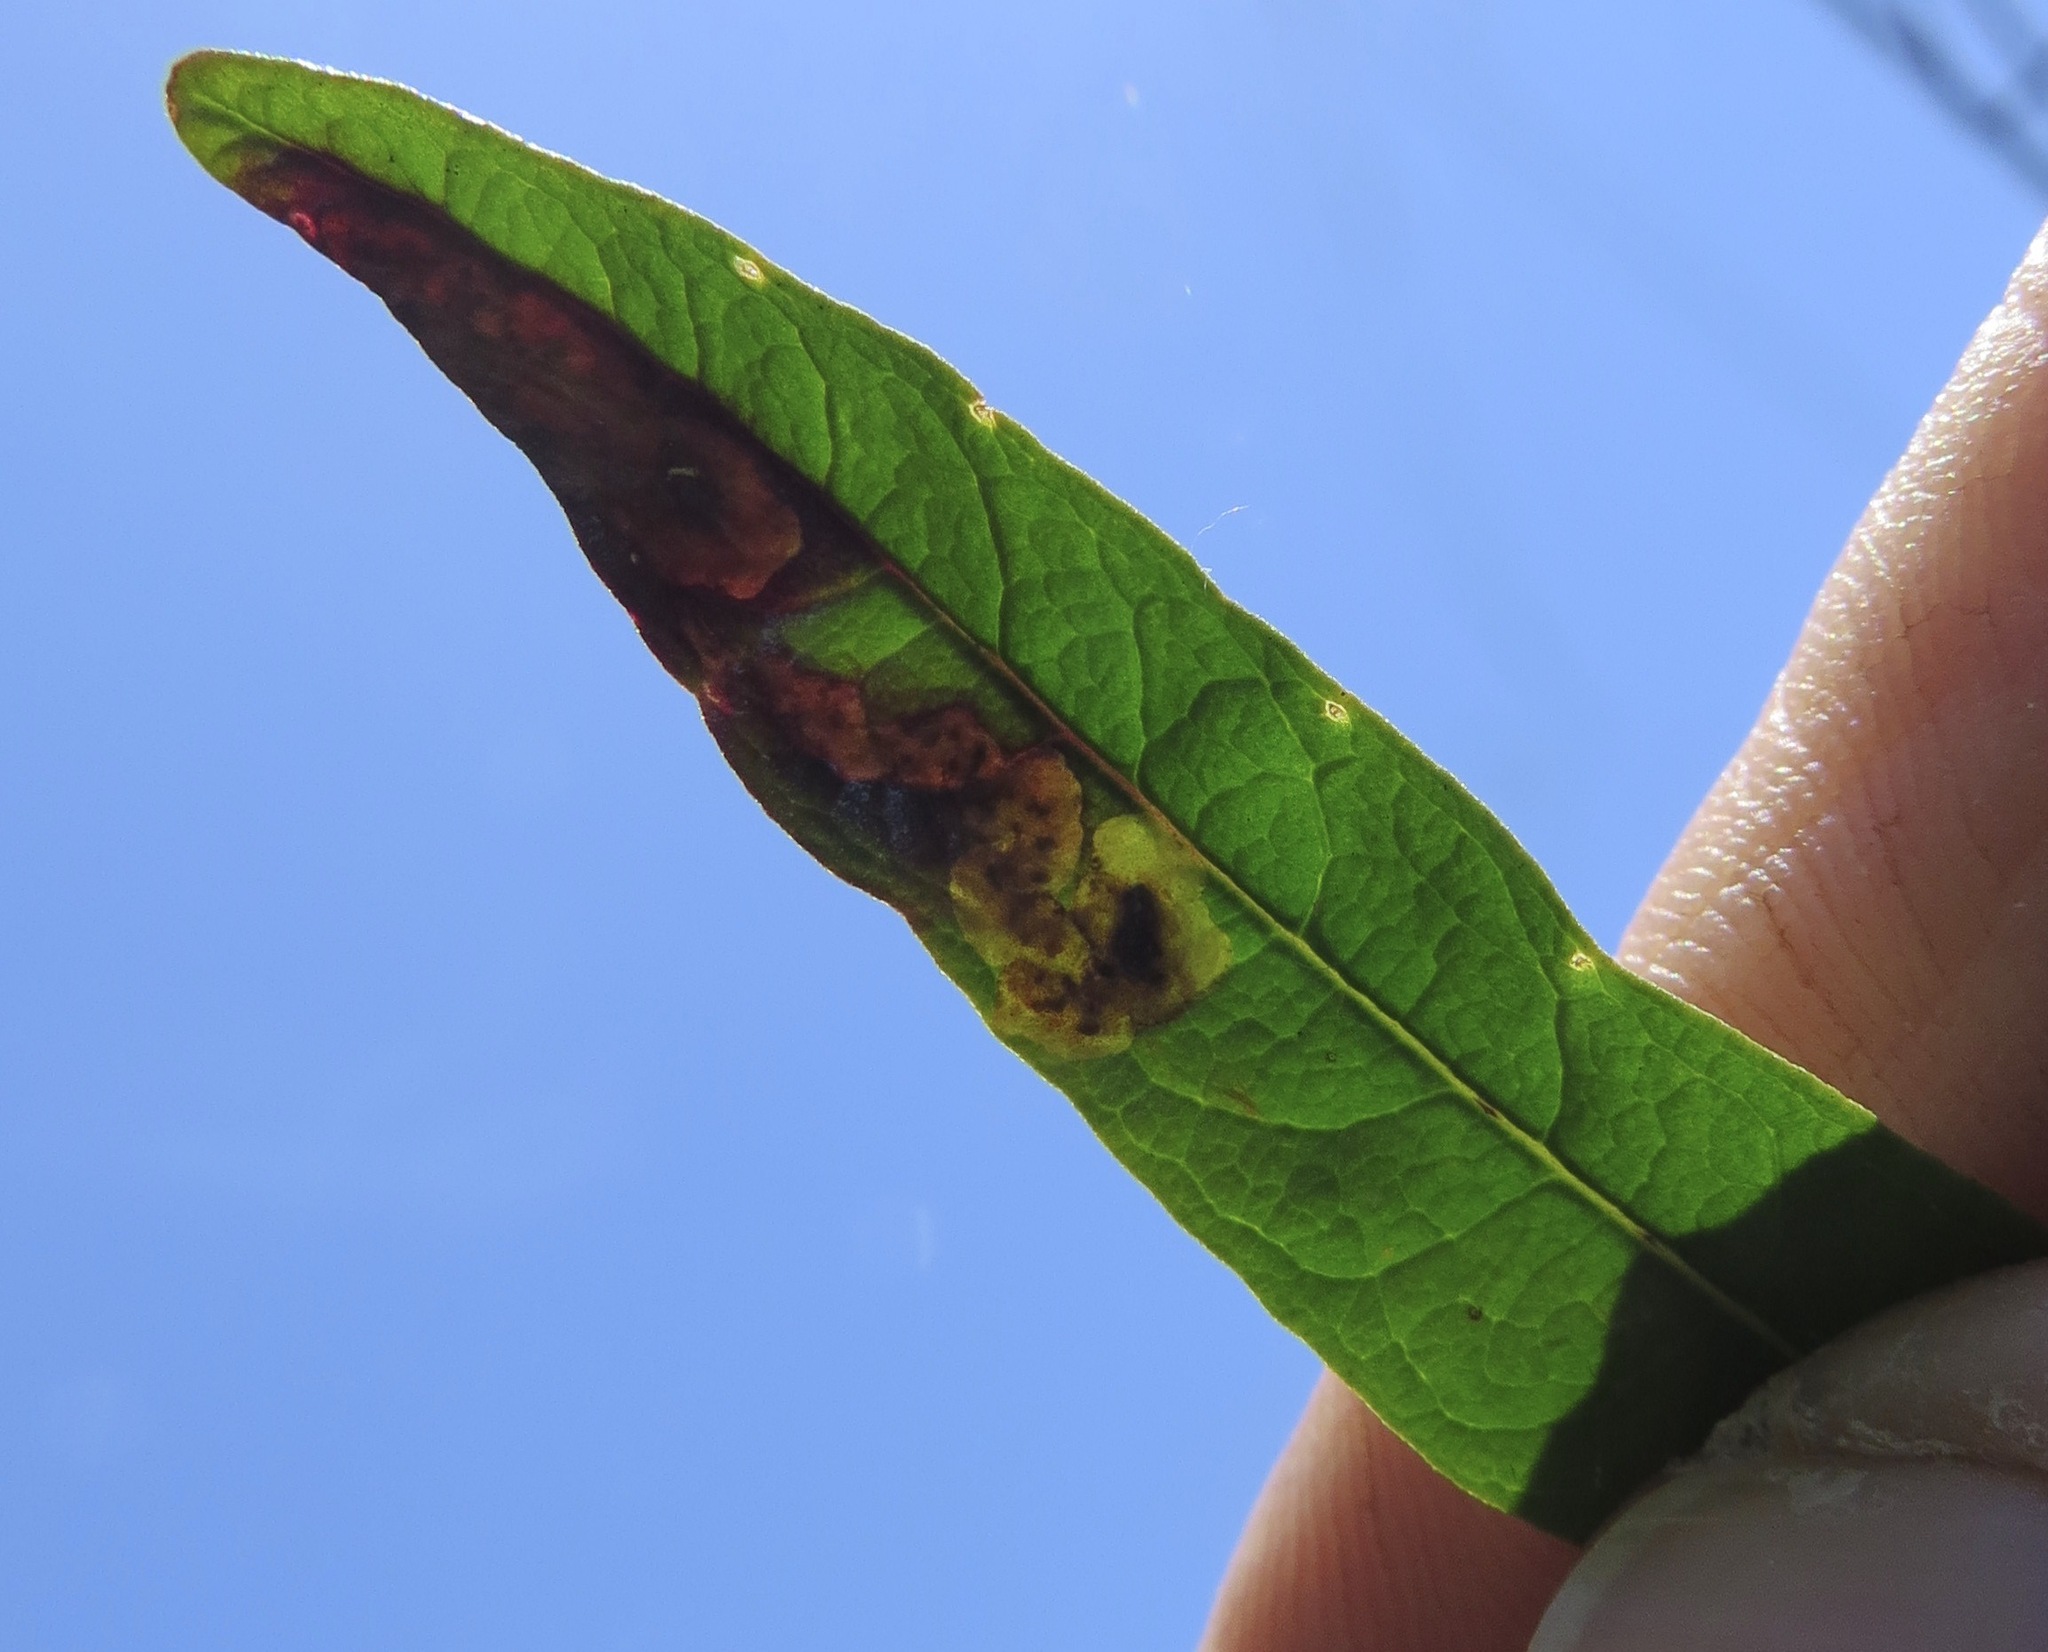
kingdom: Animalia
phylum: Arthropoda
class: Insecta
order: Diptera
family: Agromyzidae
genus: Phytomyza
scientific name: Phytomyza eriodictyi
